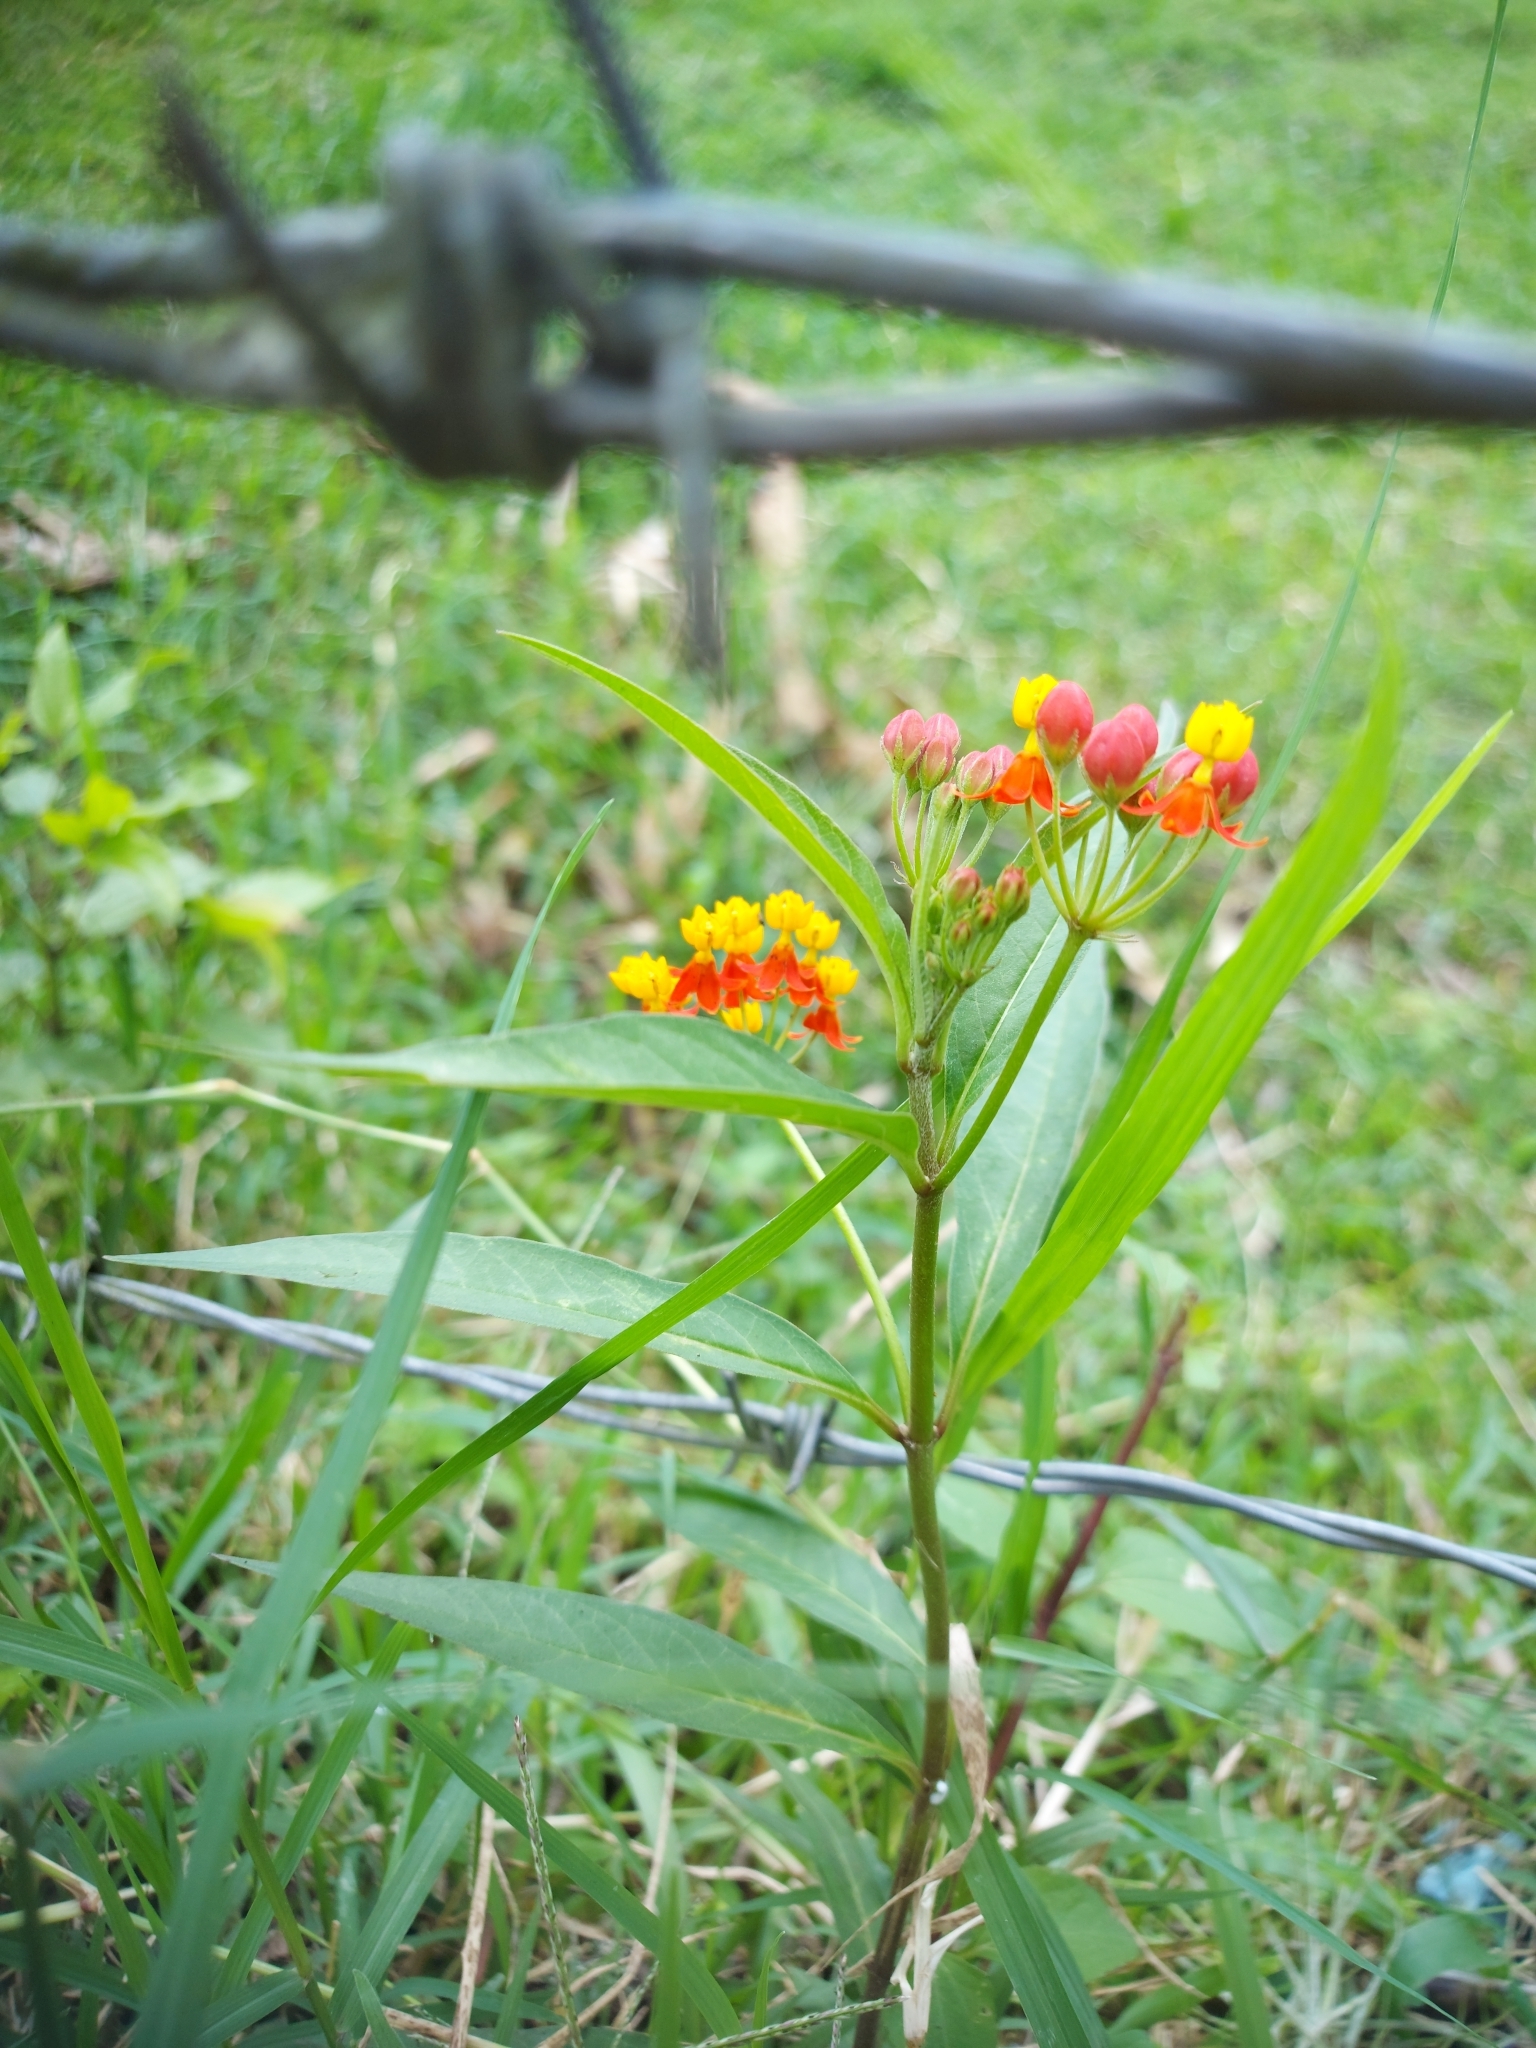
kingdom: Plantae
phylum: Tracheophyta
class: Magnoliopsida
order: Gentianales
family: Apocynaceae
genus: Asclepias
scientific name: Asclepias curassavica
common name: Bloodflower
